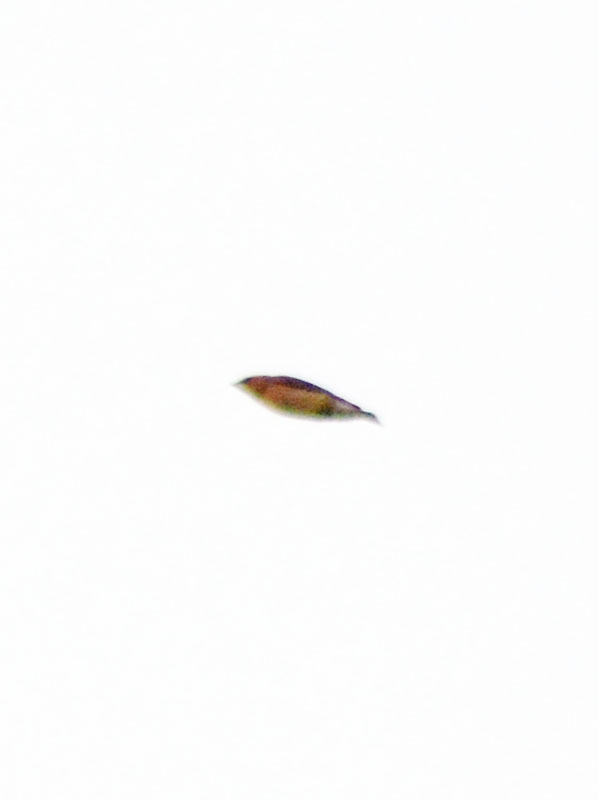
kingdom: Animalia
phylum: Chordata
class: Aves
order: Passeriformes
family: Bombycillidae
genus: Bombycilla
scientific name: Bombycilla cedrorum
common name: Cedar waxwing
